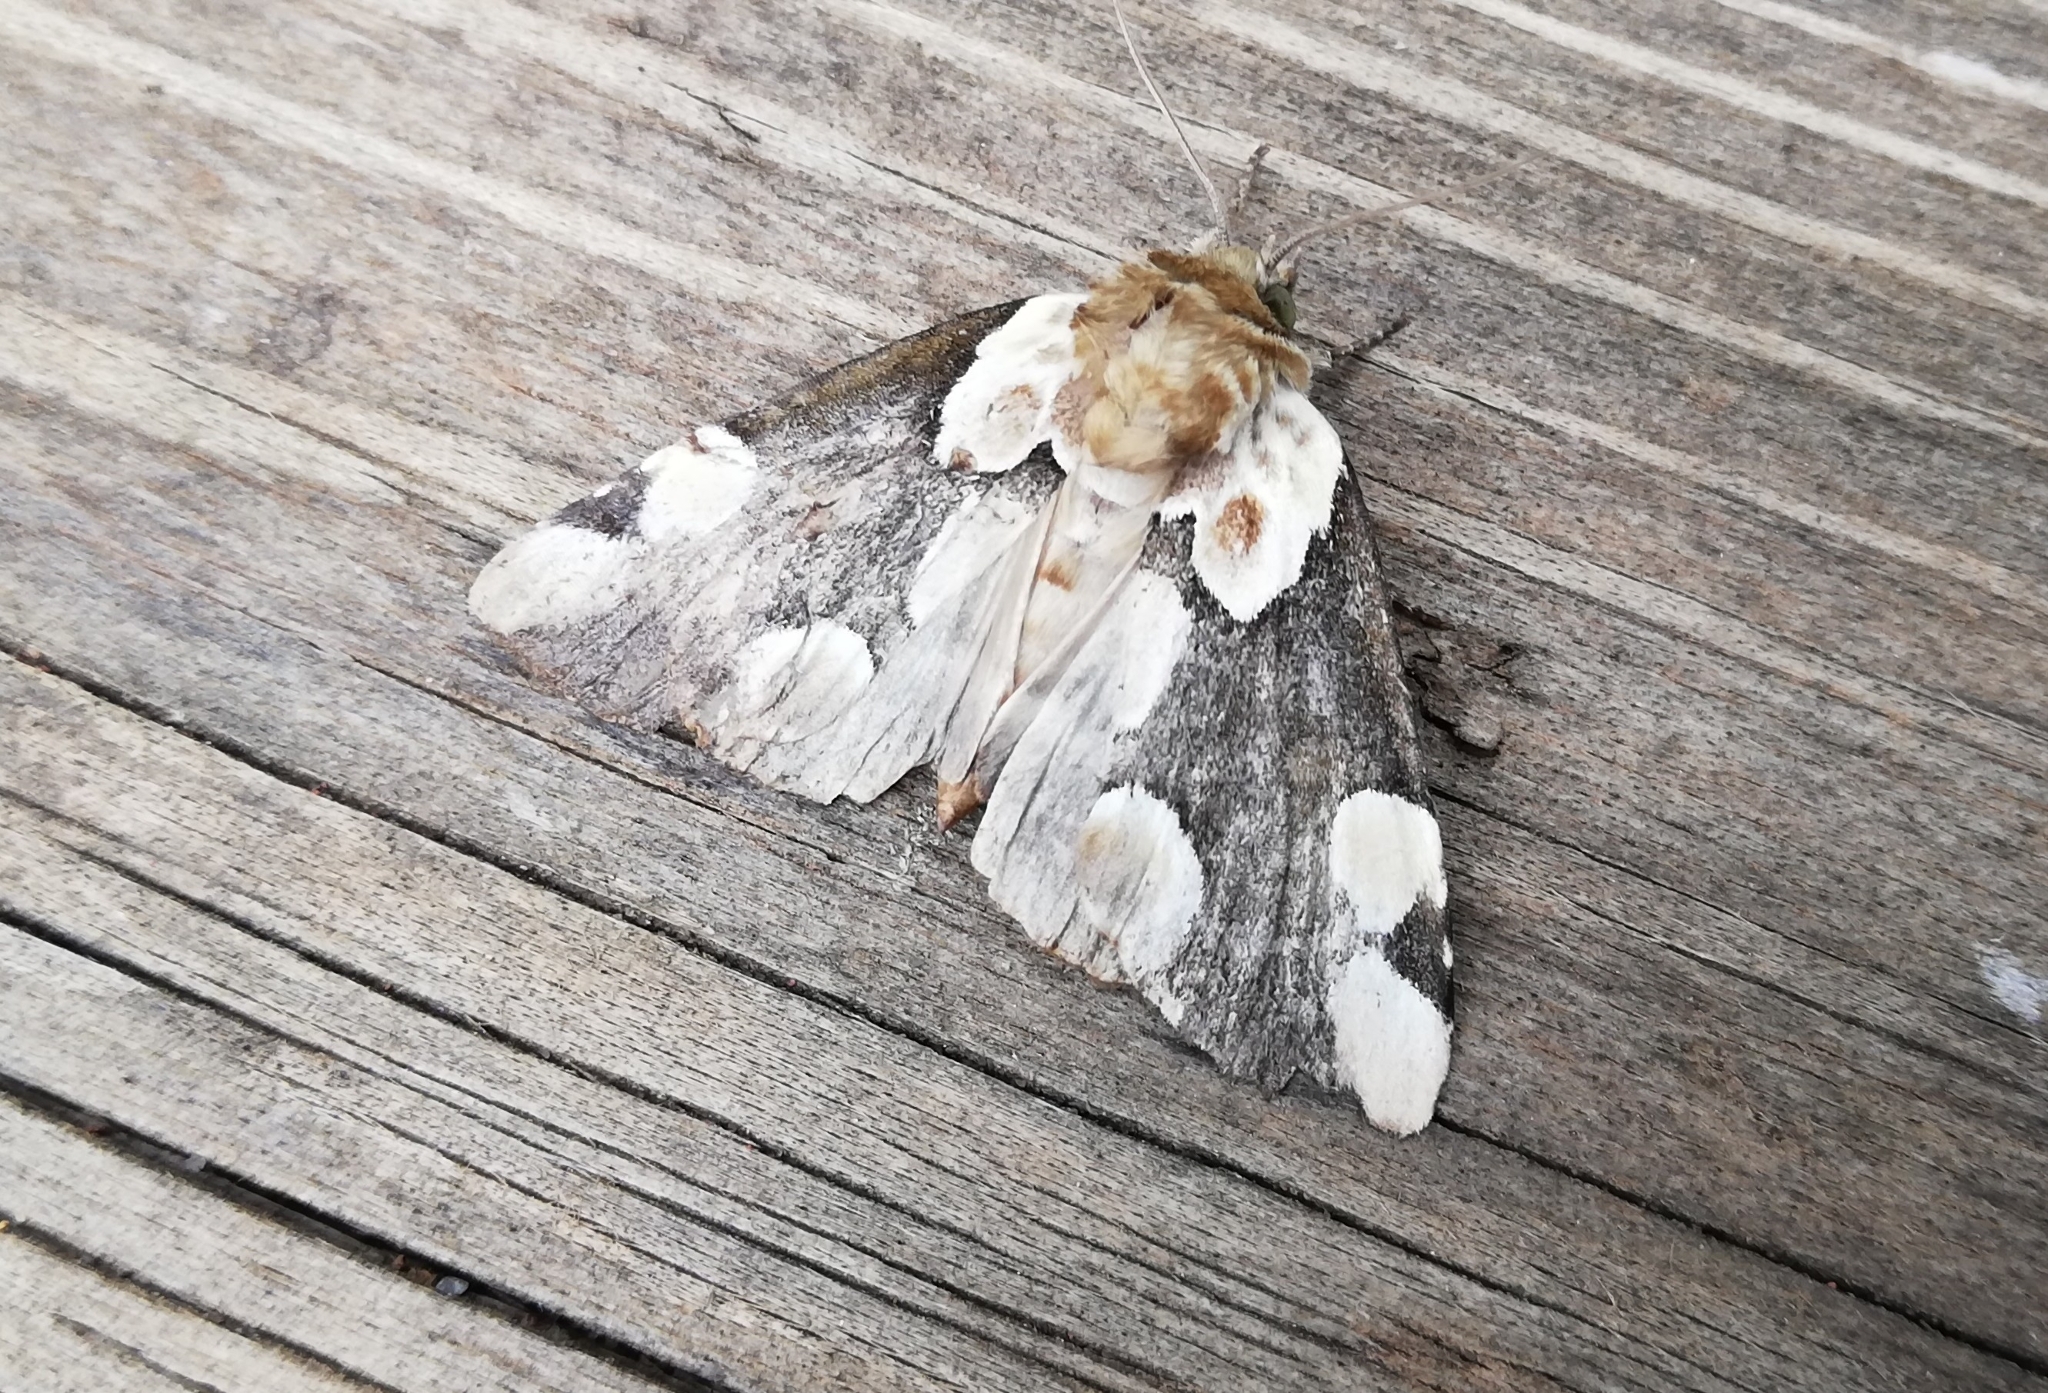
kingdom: Animalia
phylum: Arthropoda
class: Insecta
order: Lepidoptera
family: Drepanidae
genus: Thyatira
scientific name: Thyatira batis
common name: Peach blossom
